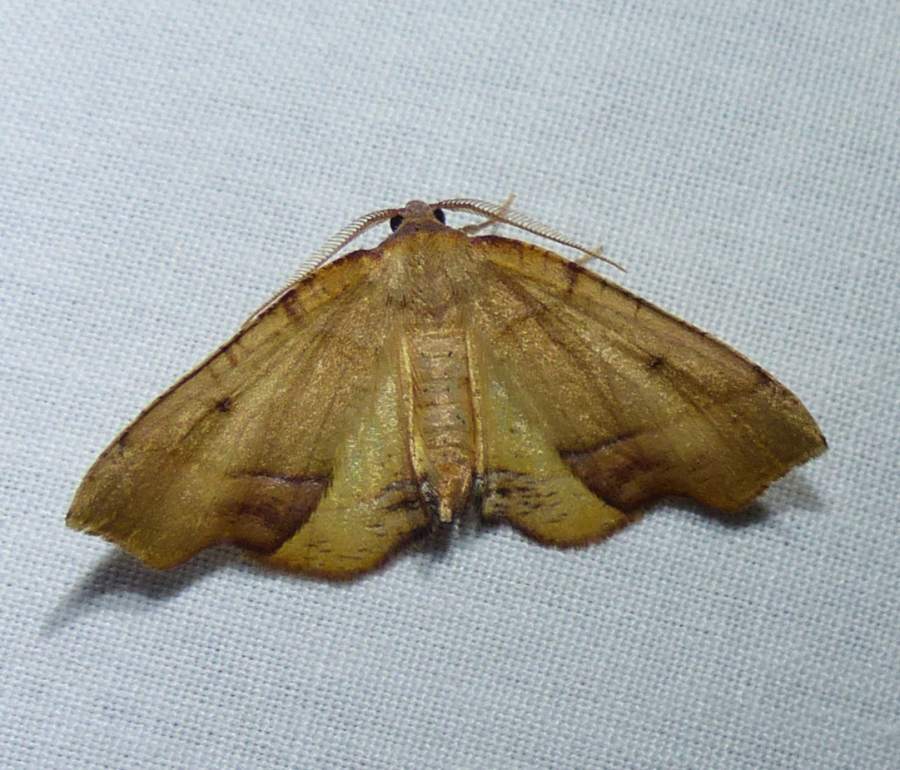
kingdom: Animalia
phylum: Arthropoda
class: Insecta
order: Lepidoptera
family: Geometridae
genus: Plagodis
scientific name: Plagodis phlogosaria
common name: Straight-lined plagodis
